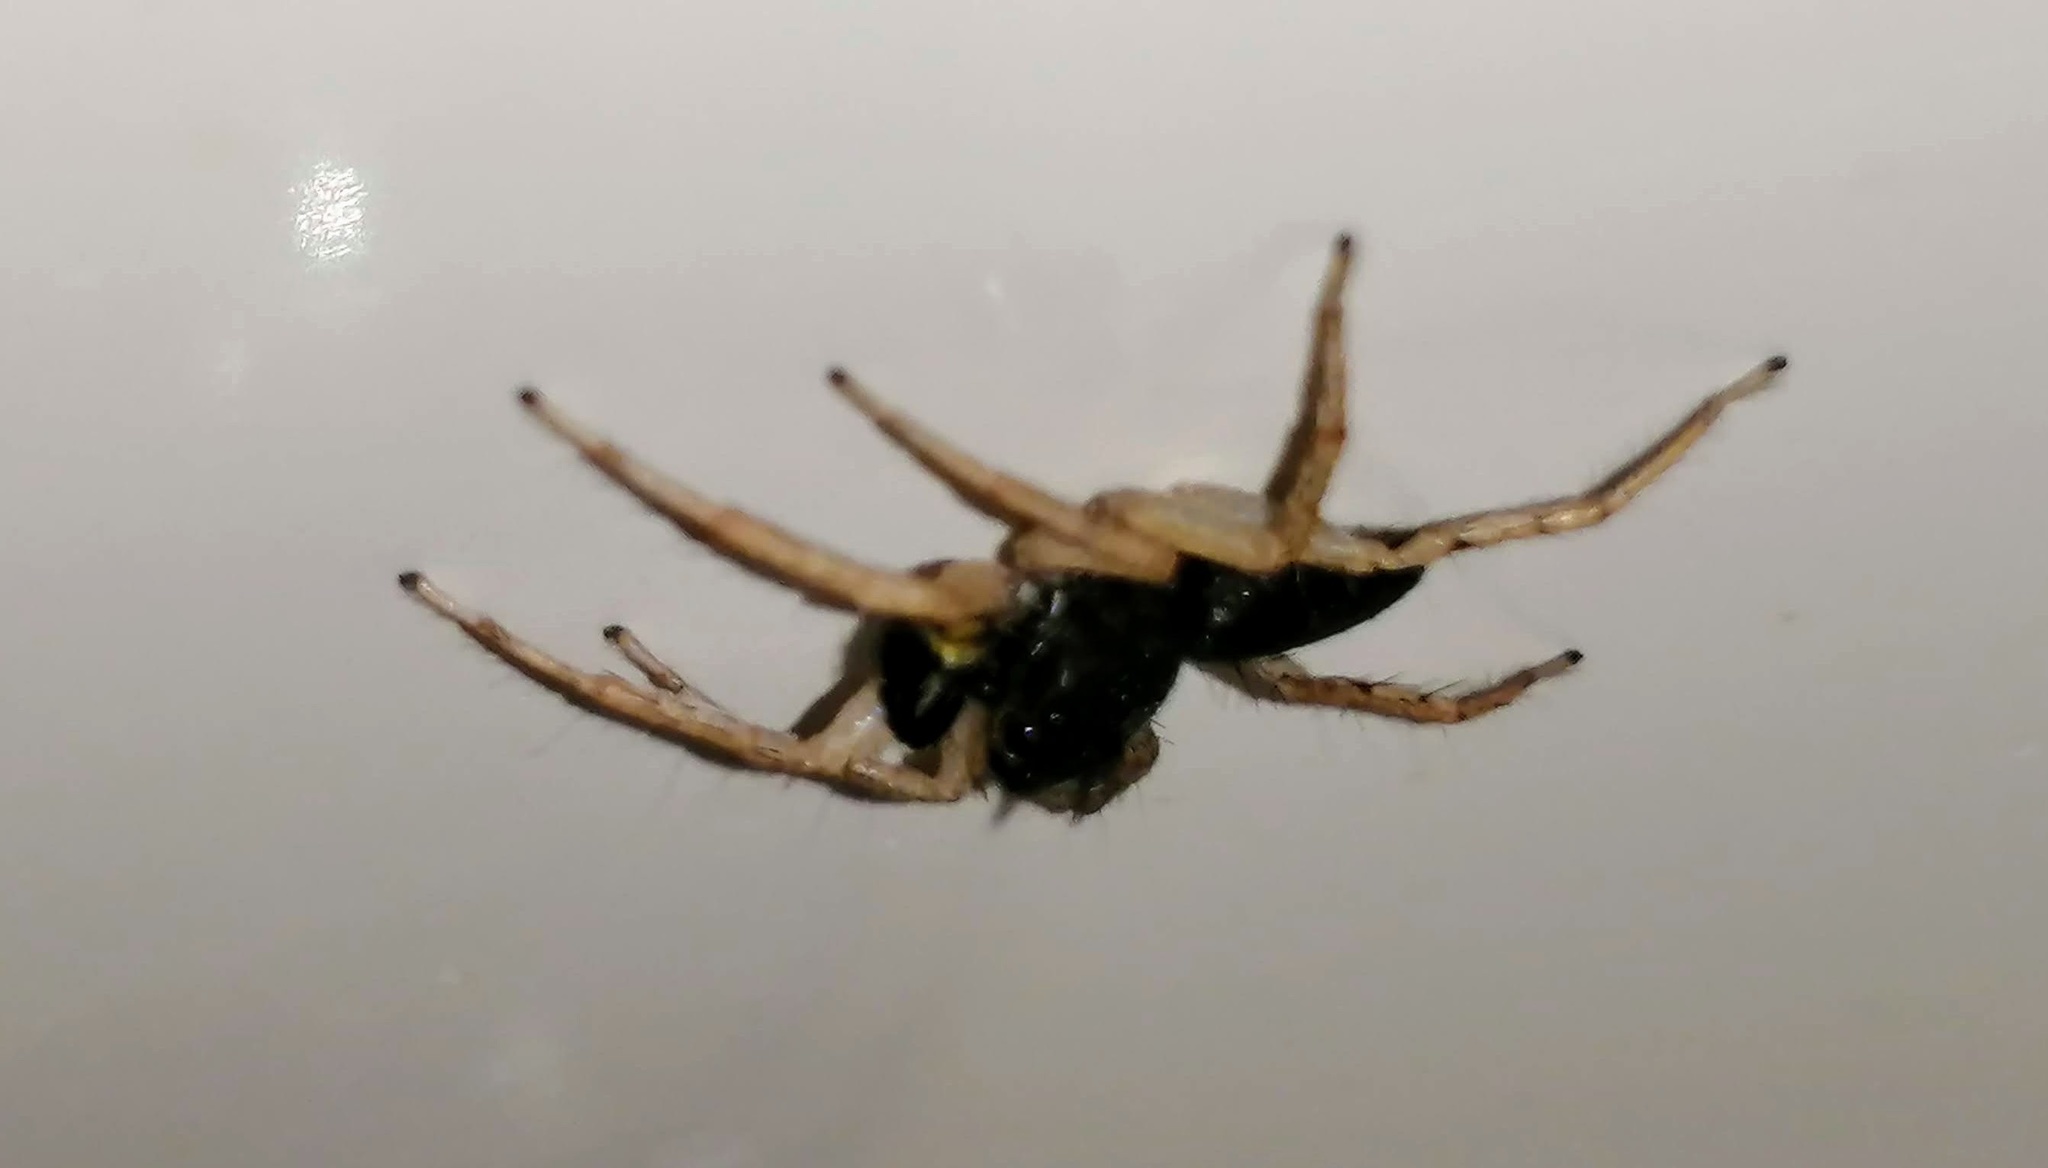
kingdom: Animalia
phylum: Arthropoda
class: Arachnida
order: Araneae
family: Salticidae
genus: Maevia
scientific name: Maevia inclemens
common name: Dimorphic jumper
